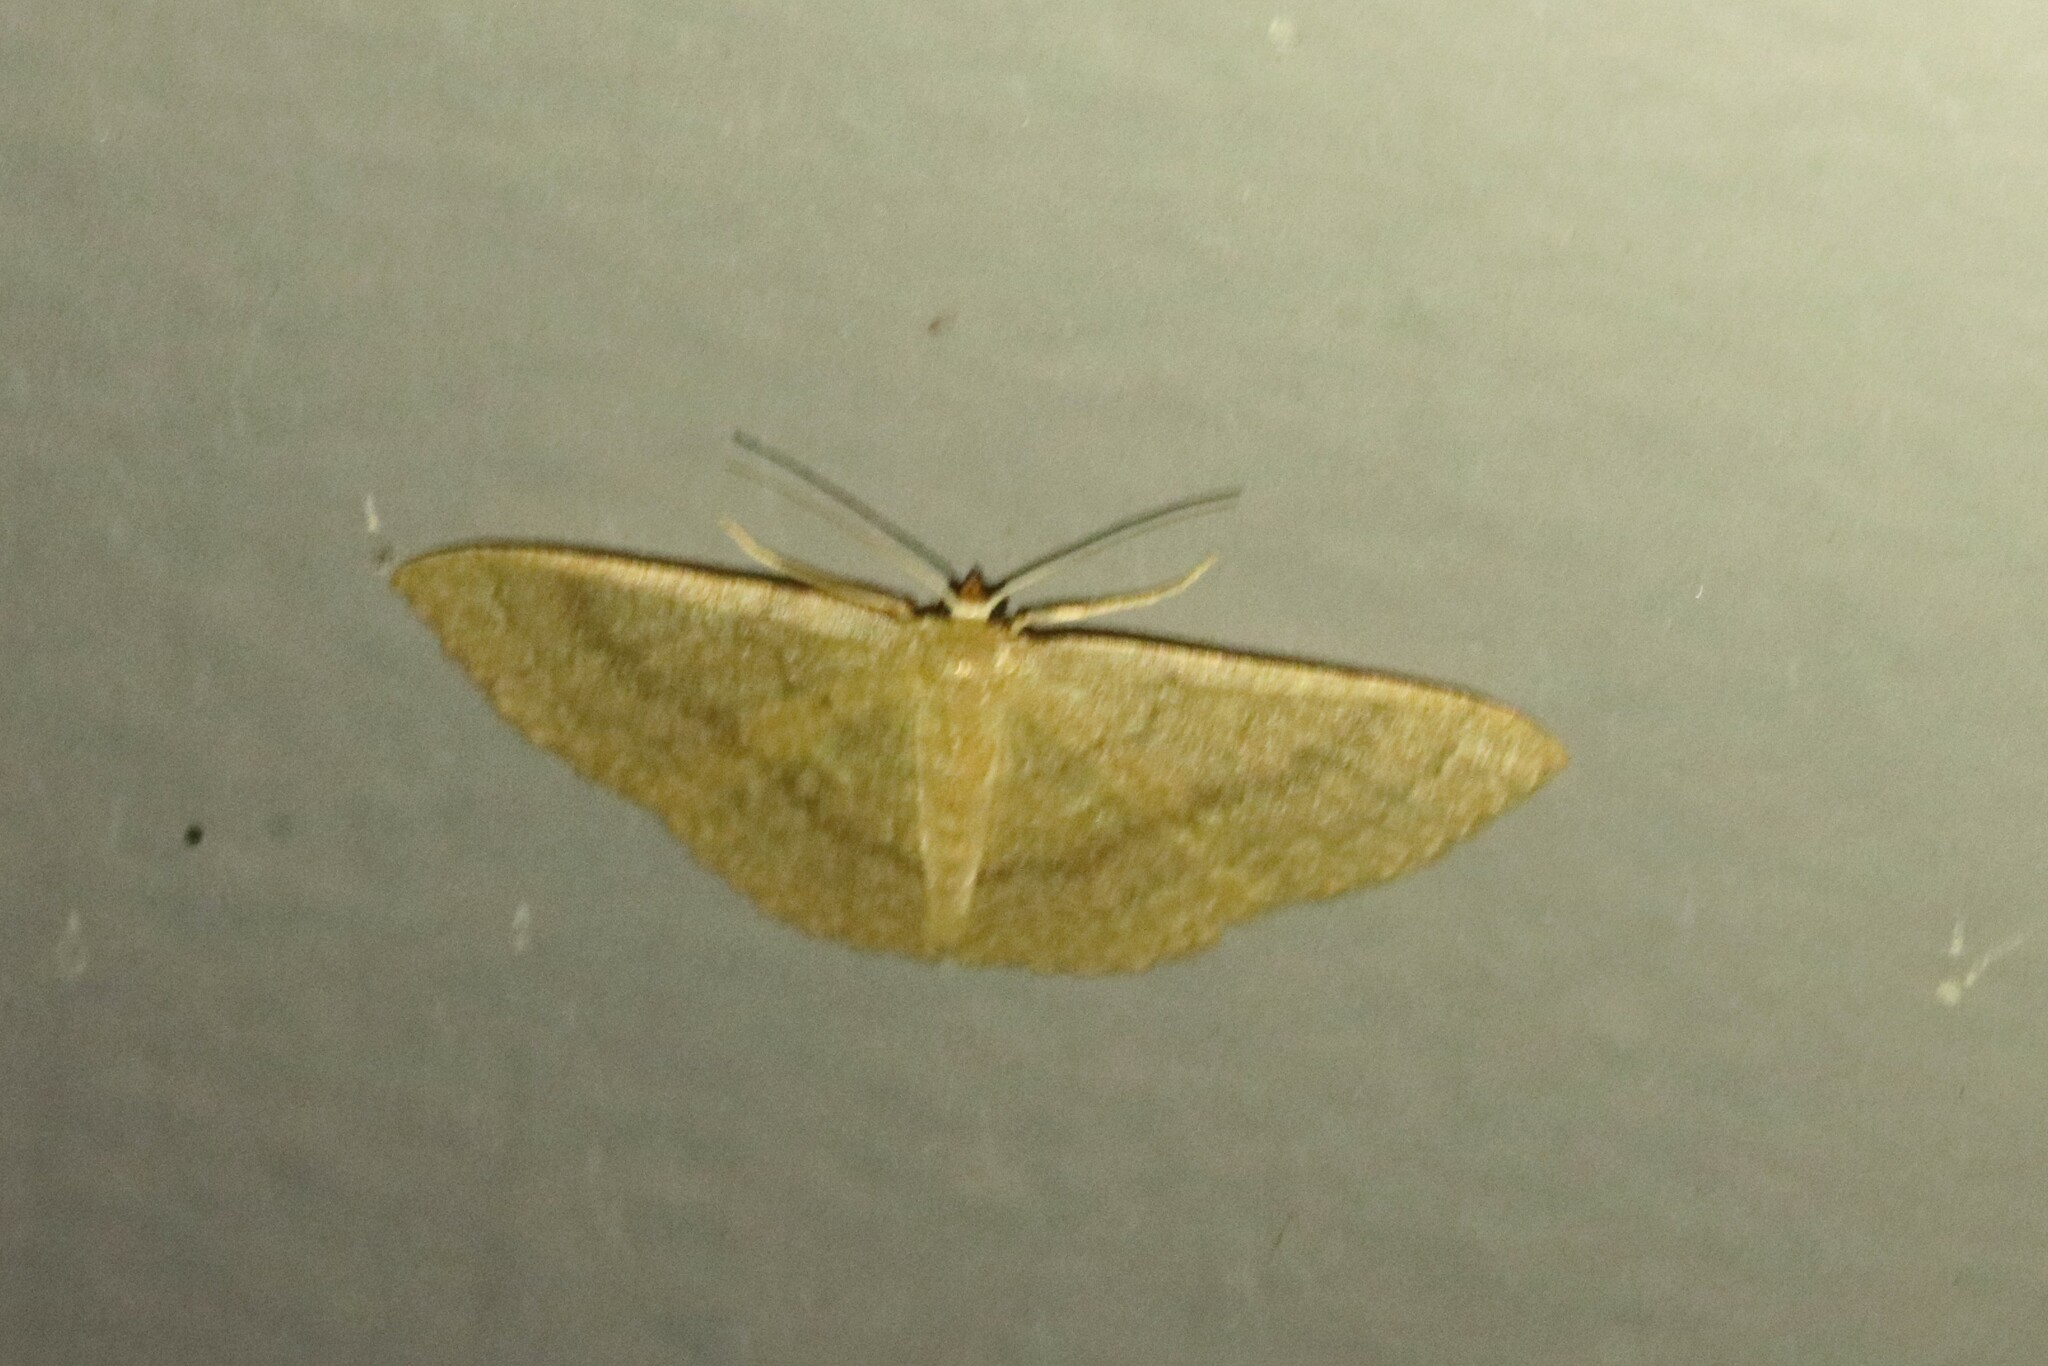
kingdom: Animalia
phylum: Arthropoda
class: Insecta
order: Lepidoptera
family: Geometridae
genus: Pleuroprucha
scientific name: Pleuroprucha insulsaria
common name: Common tan wave
